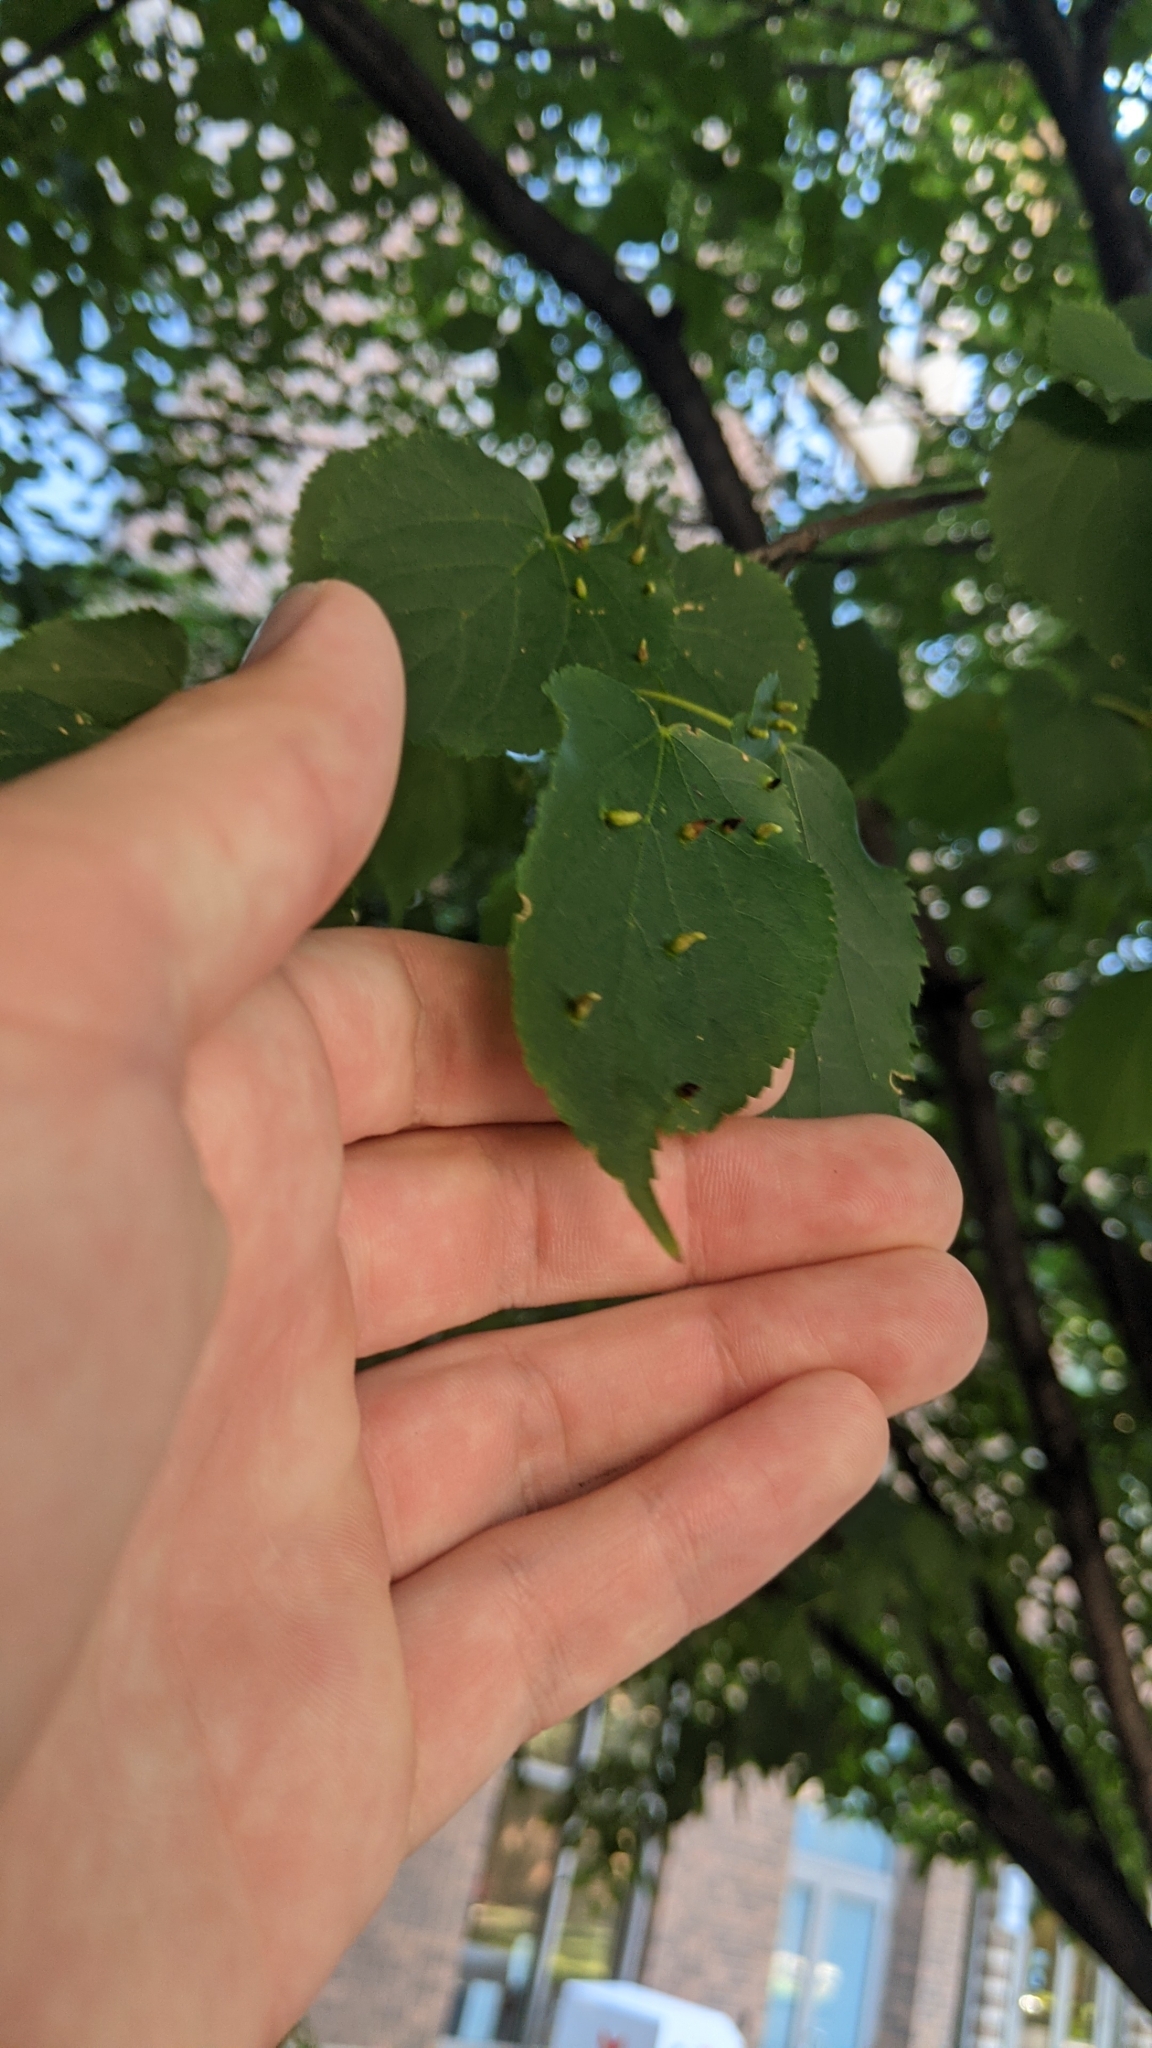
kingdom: Animalia
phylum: Arthropoda
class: Arachnida
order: Trombidiformes
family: Eriophyidae
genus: Eriophyes
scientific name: Eriophyes tiliae
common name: Red nail gall mite
